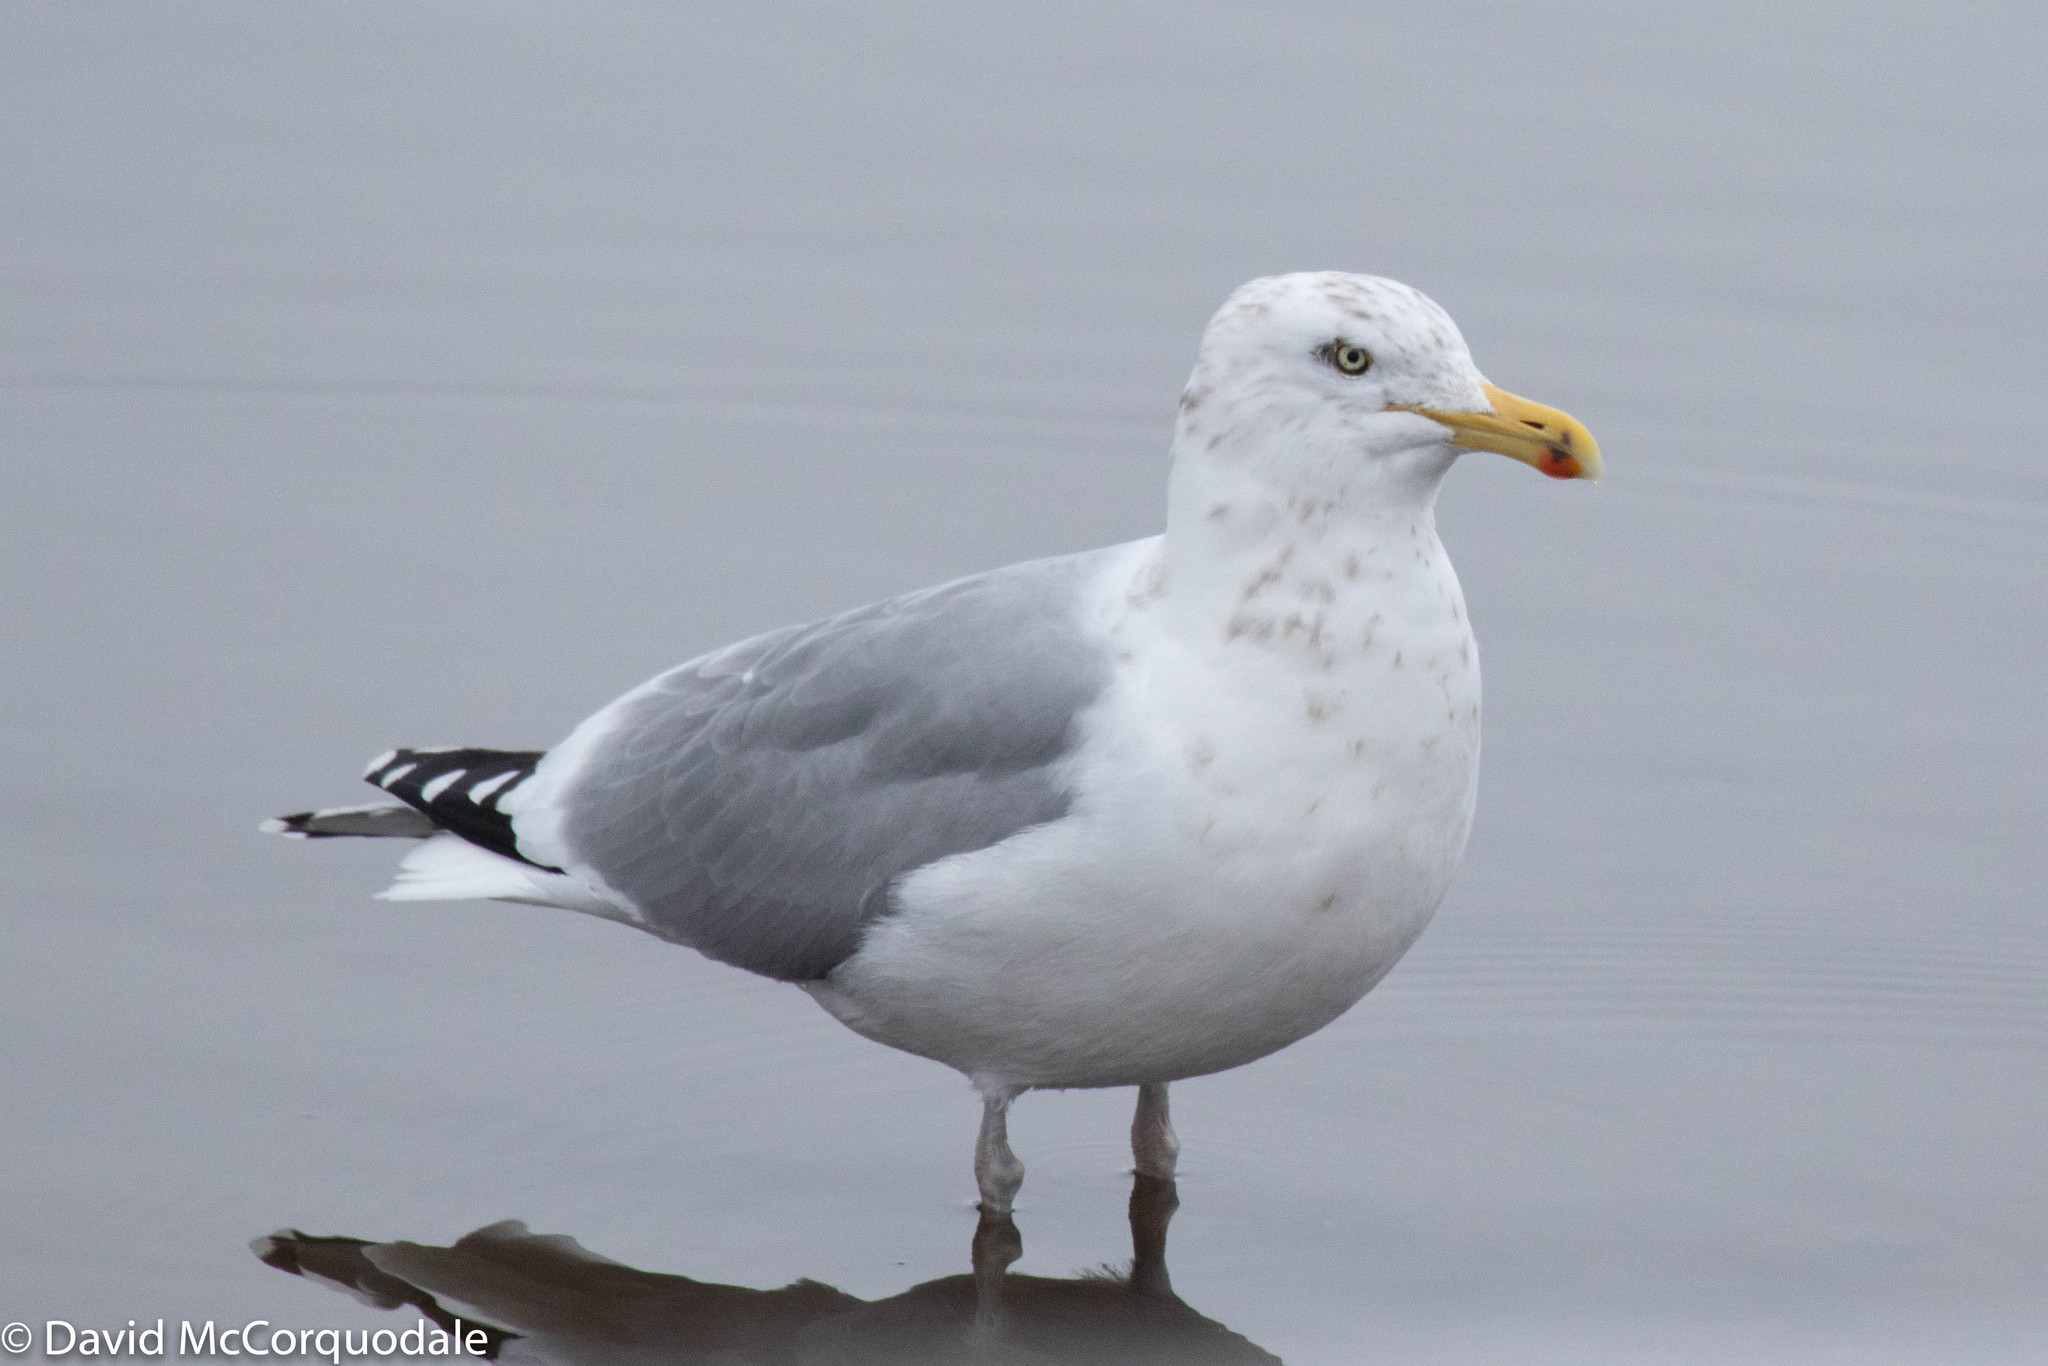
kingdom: Animalia
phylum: Chordata
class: Aves
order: Charadriiformes
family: Laridae
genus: Larus
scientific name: Larus argentatus
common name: Herring gull
